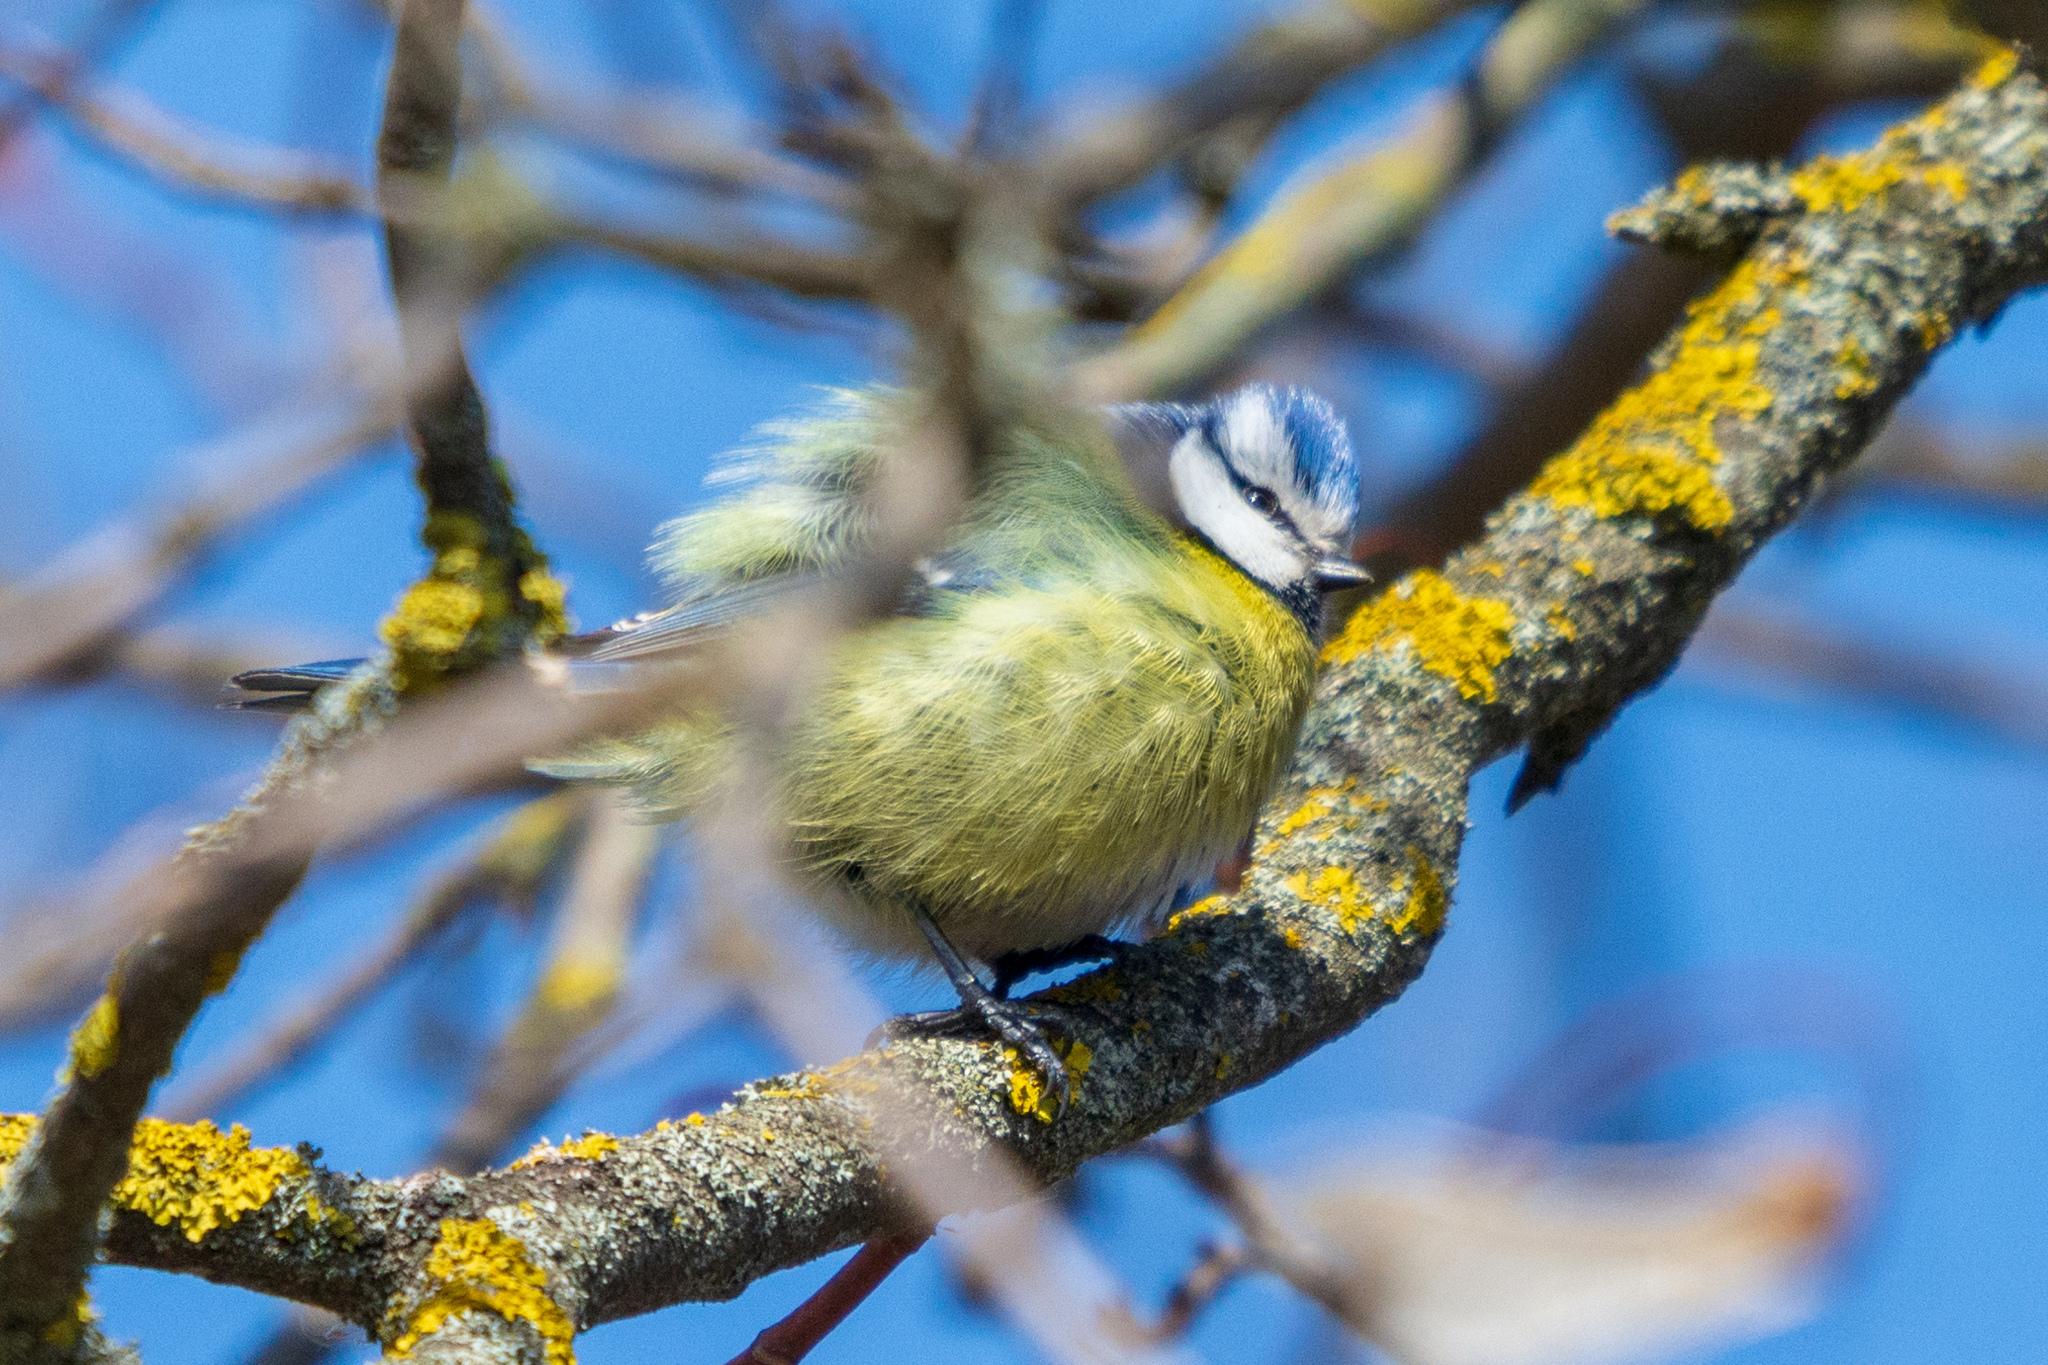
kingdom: Animalia
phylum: Chordata
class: Aves
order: Passeriformes
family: Paridae
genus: Cyanistes
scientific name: Cyanistes caeruleus
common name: Eurasian blue tit
